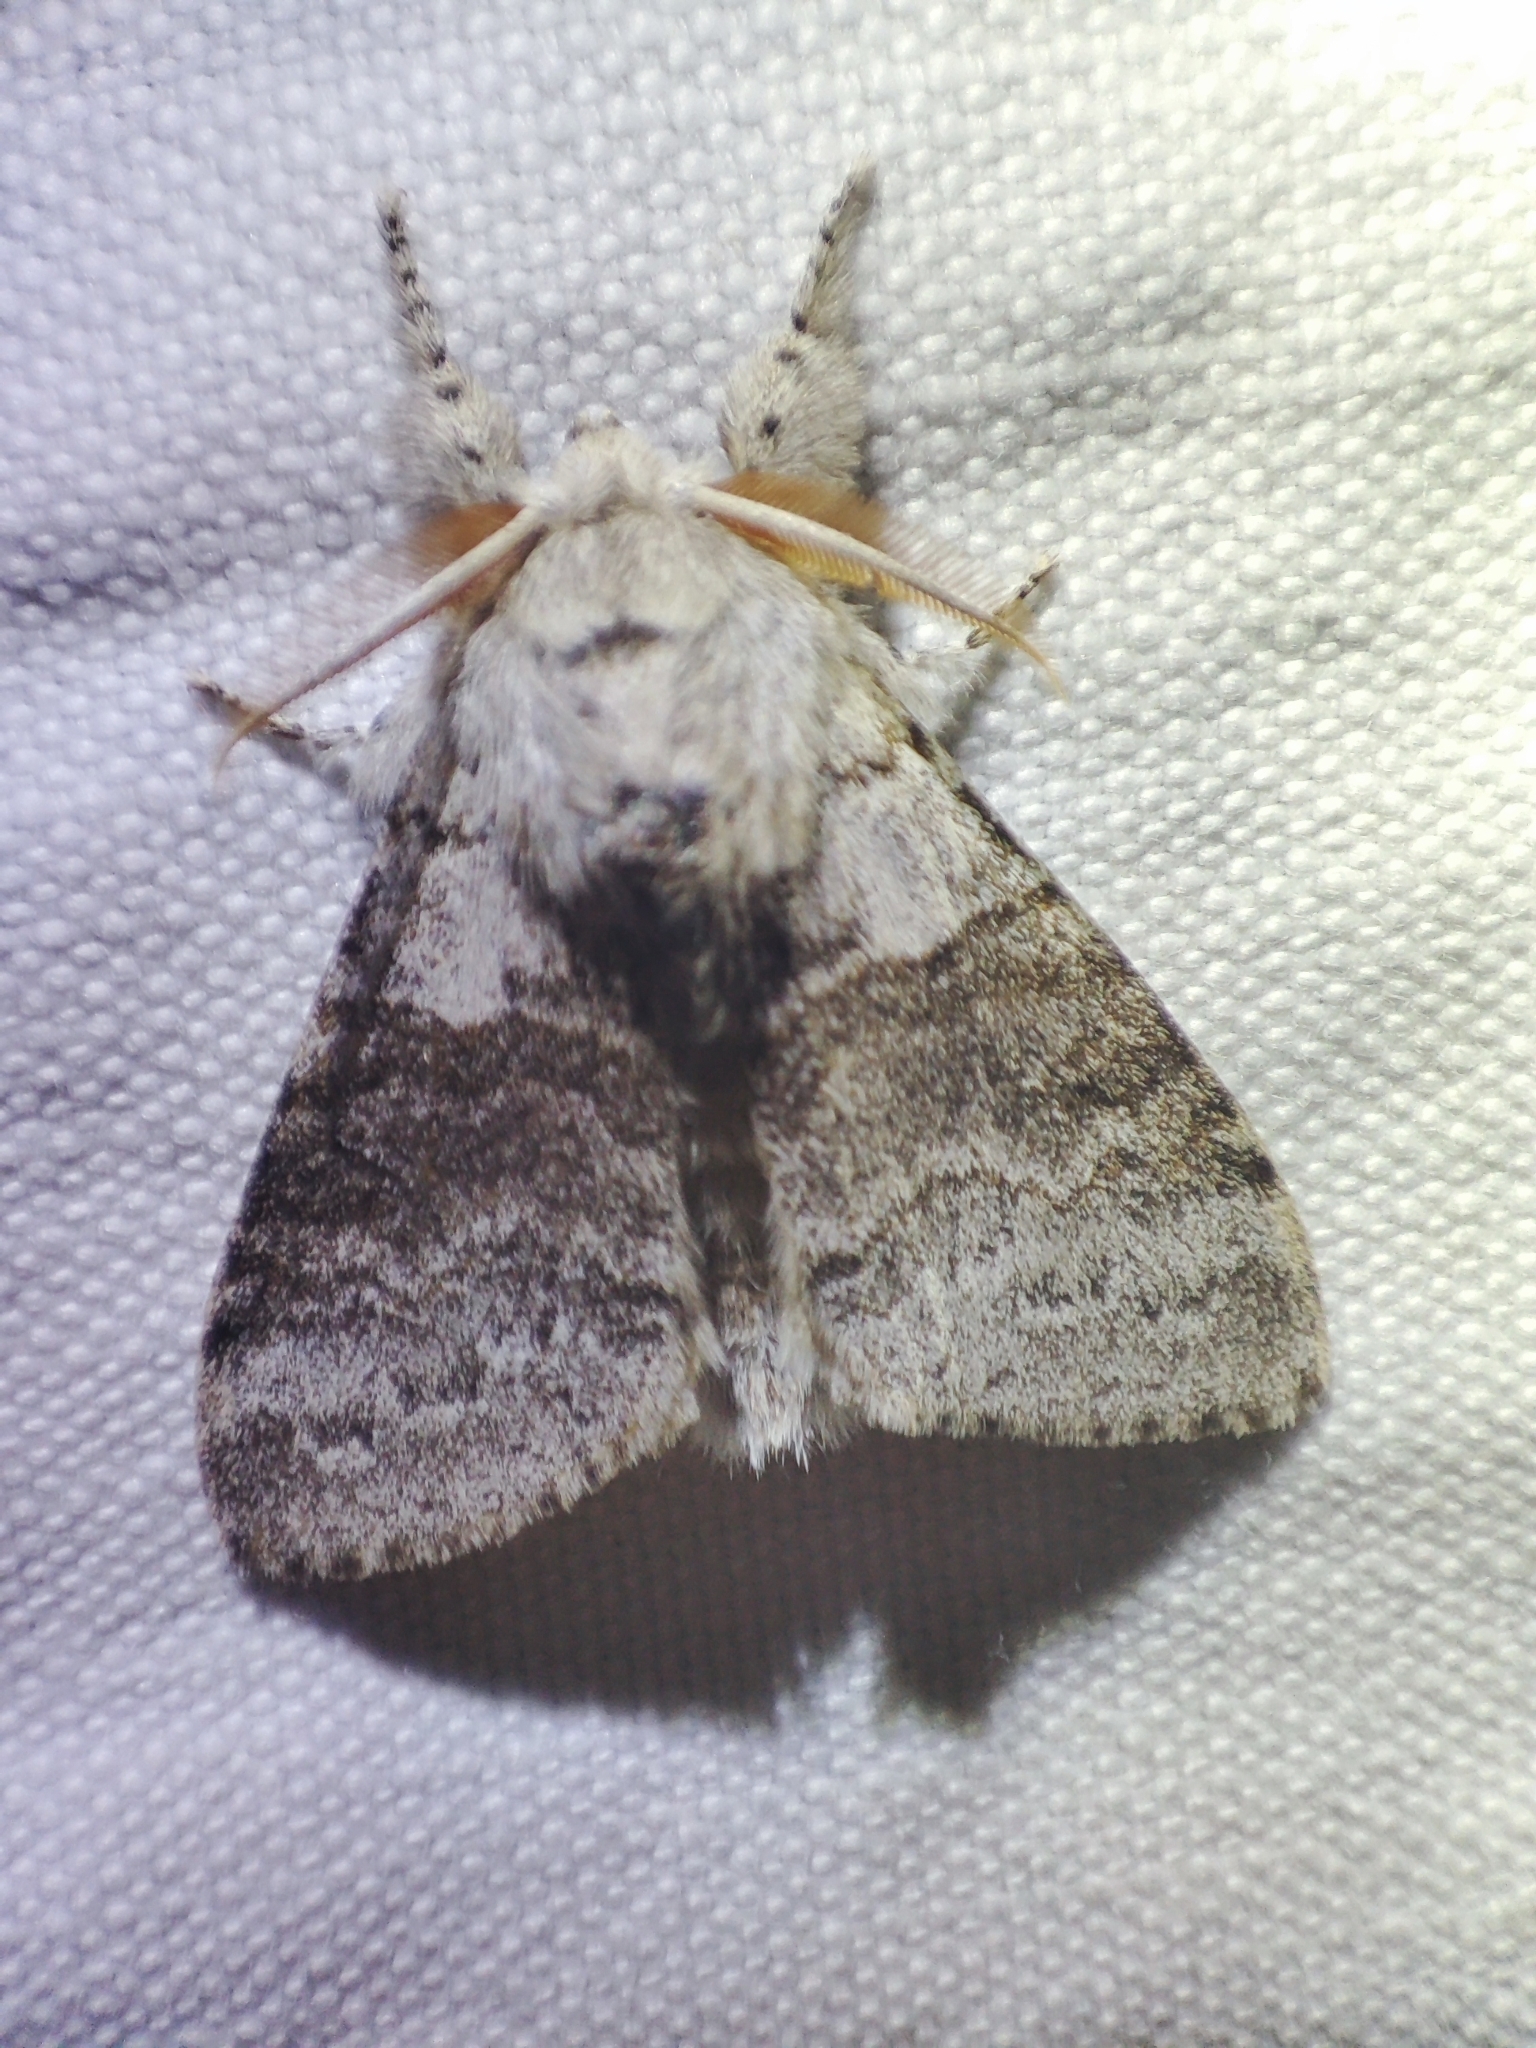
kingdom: Animalia
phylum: Arthropoda
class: Insecta
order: Lepidoptera
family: Erebidae
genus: Calliteara
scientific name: Calliteara pudibunda
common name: Pale tussock
